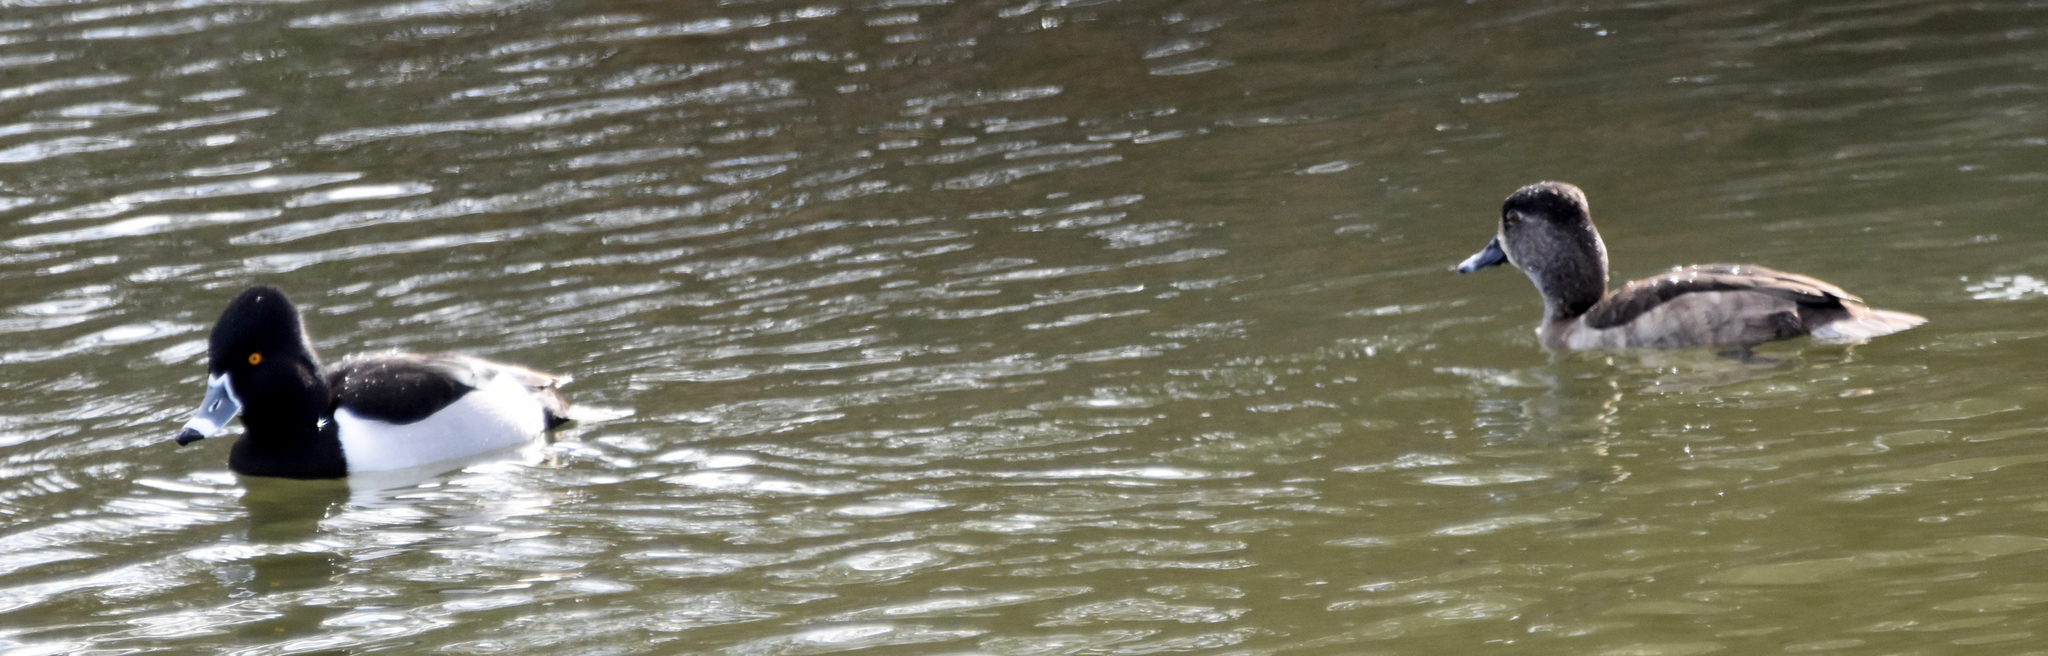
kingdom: Animalia
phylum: Chordata
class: Aves
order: Anseriformes
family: Anatidae
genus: Aythya
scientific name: Aythya collaris
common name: Ring-necked duck
